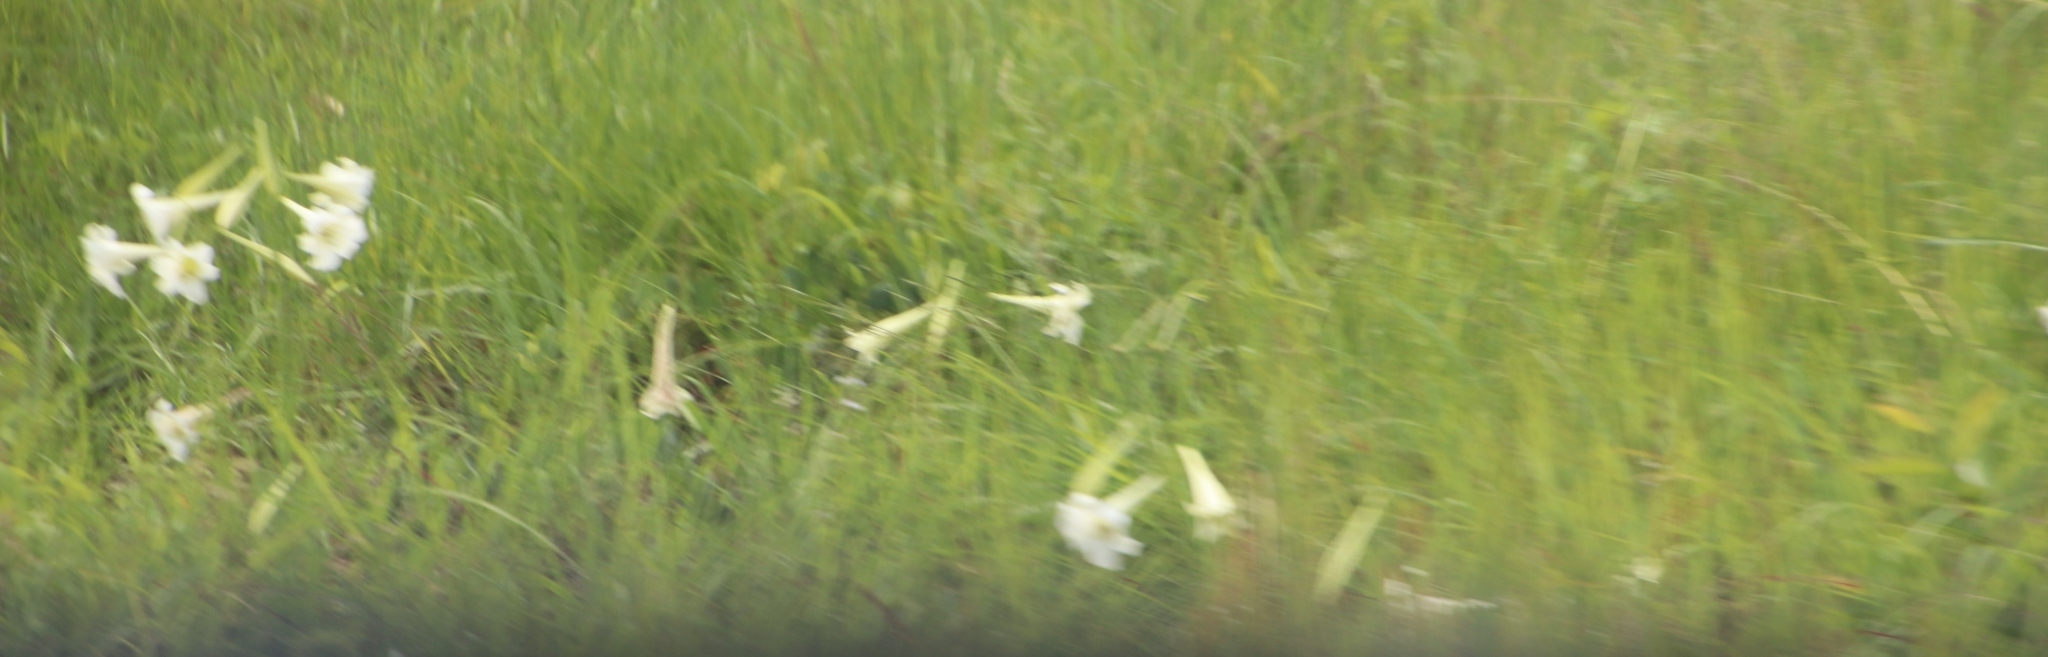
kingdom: Plantae
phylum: Tracheophyta
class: Liliopsida
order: Liliales
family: Liliaceae
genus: Lilium
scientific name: Lilium formosanum
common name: Formosa lily
